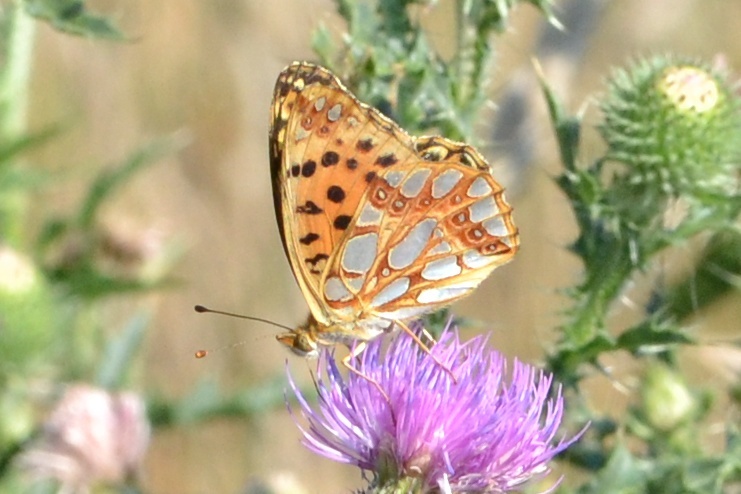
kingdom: Animalia
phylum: Arthropoda
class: Insecta
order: Lepidoptera
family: Nymphalidae
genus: Issoria
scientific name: Issoria lathonia
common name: Queen of spain fritillary
